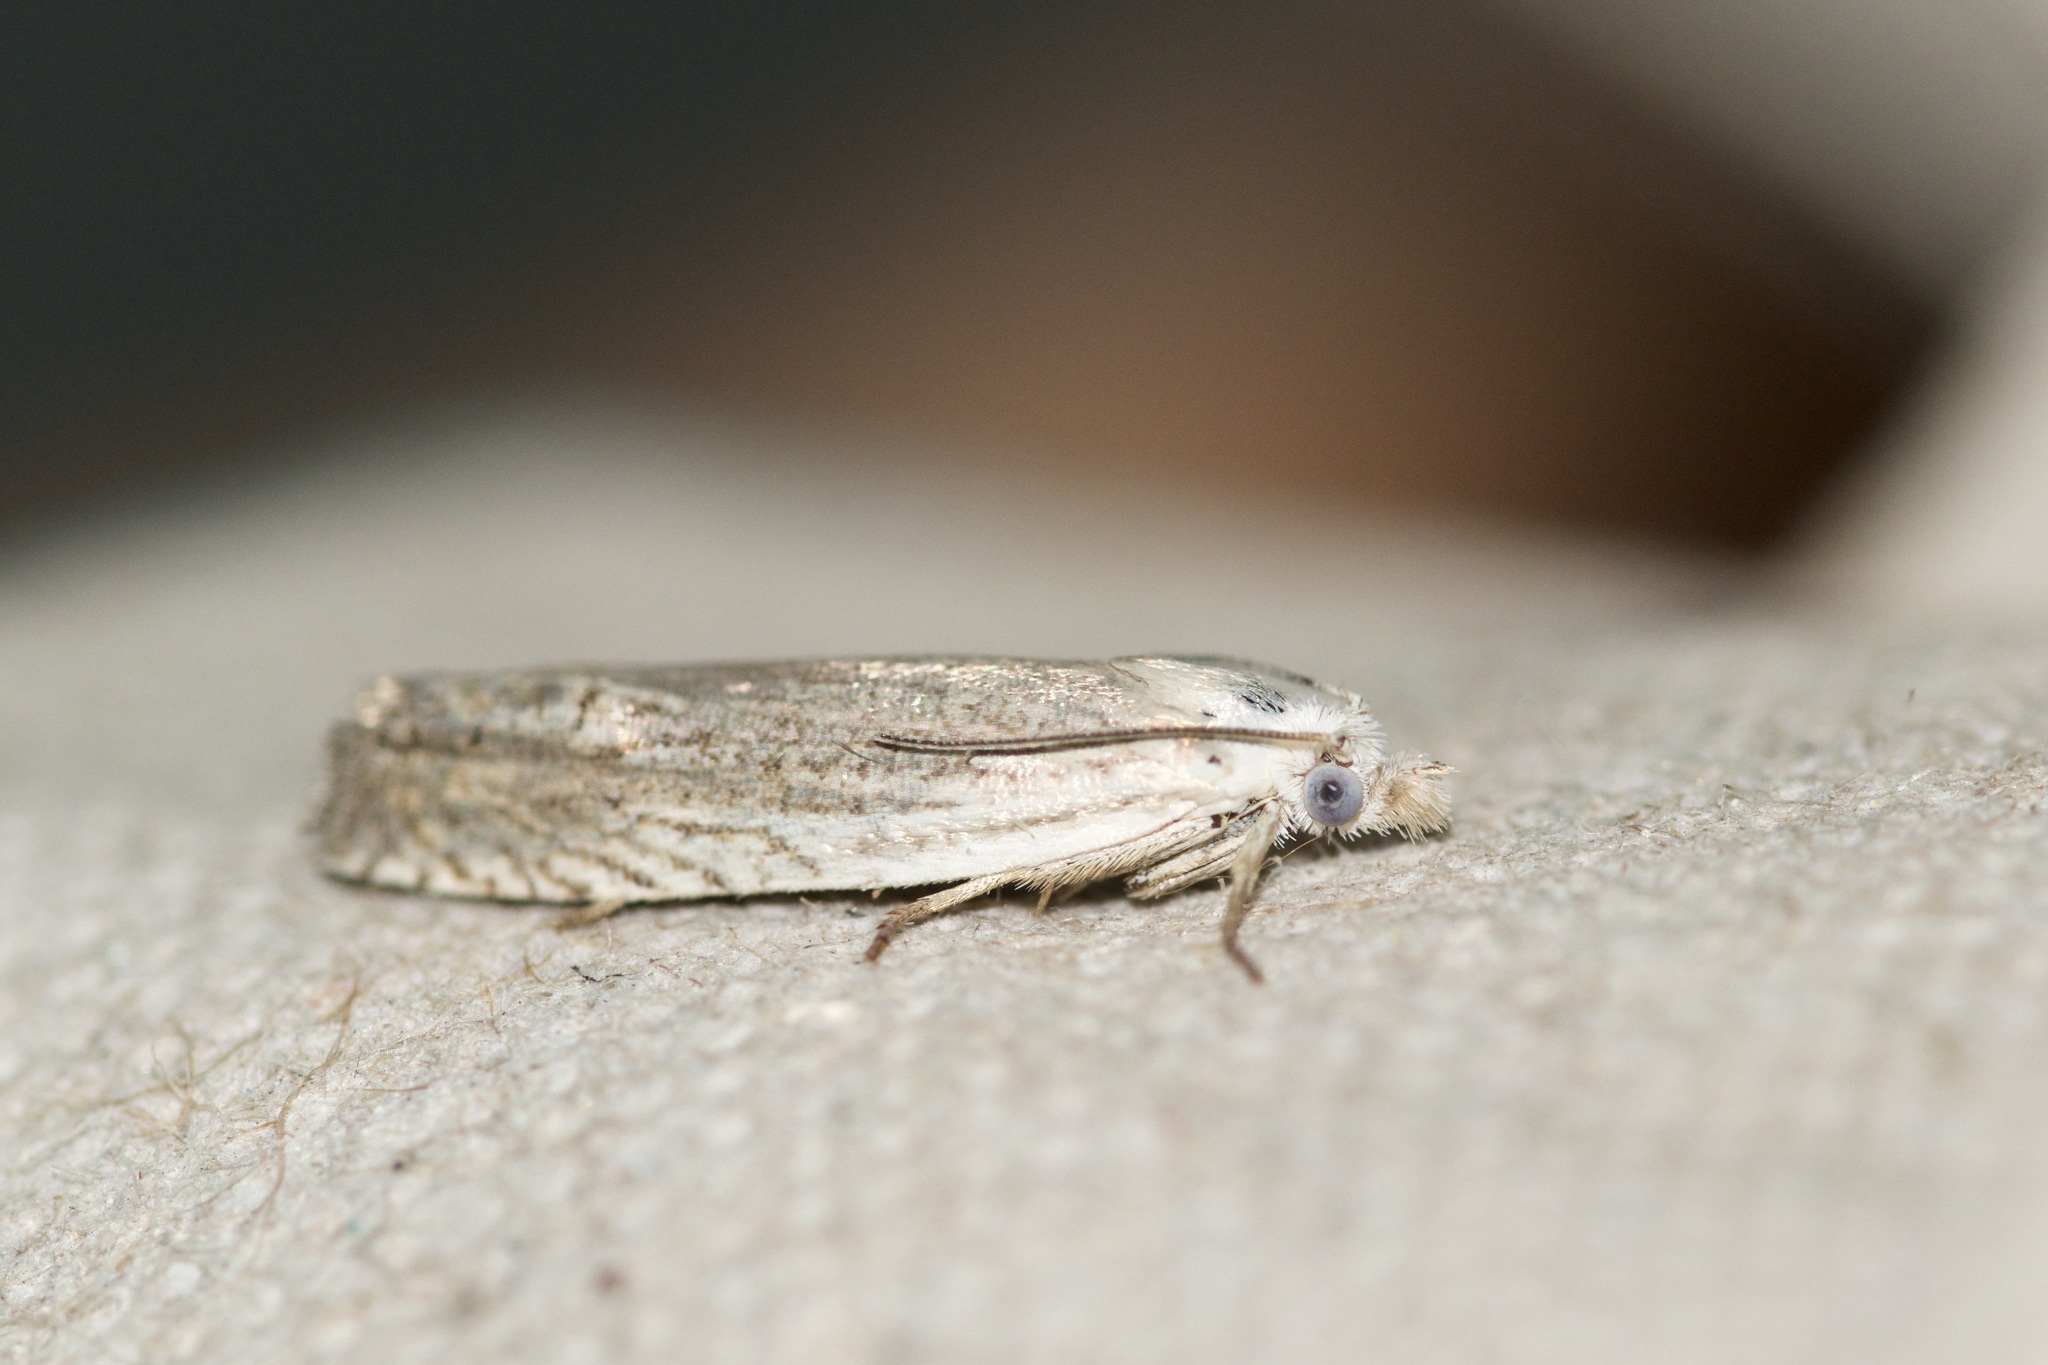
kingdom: Animalia
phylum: Arthropoda
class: Insecta
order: Lepidoptera
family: Tortricidae
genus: Pelochrista
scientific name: Pelochrista argentialbana
